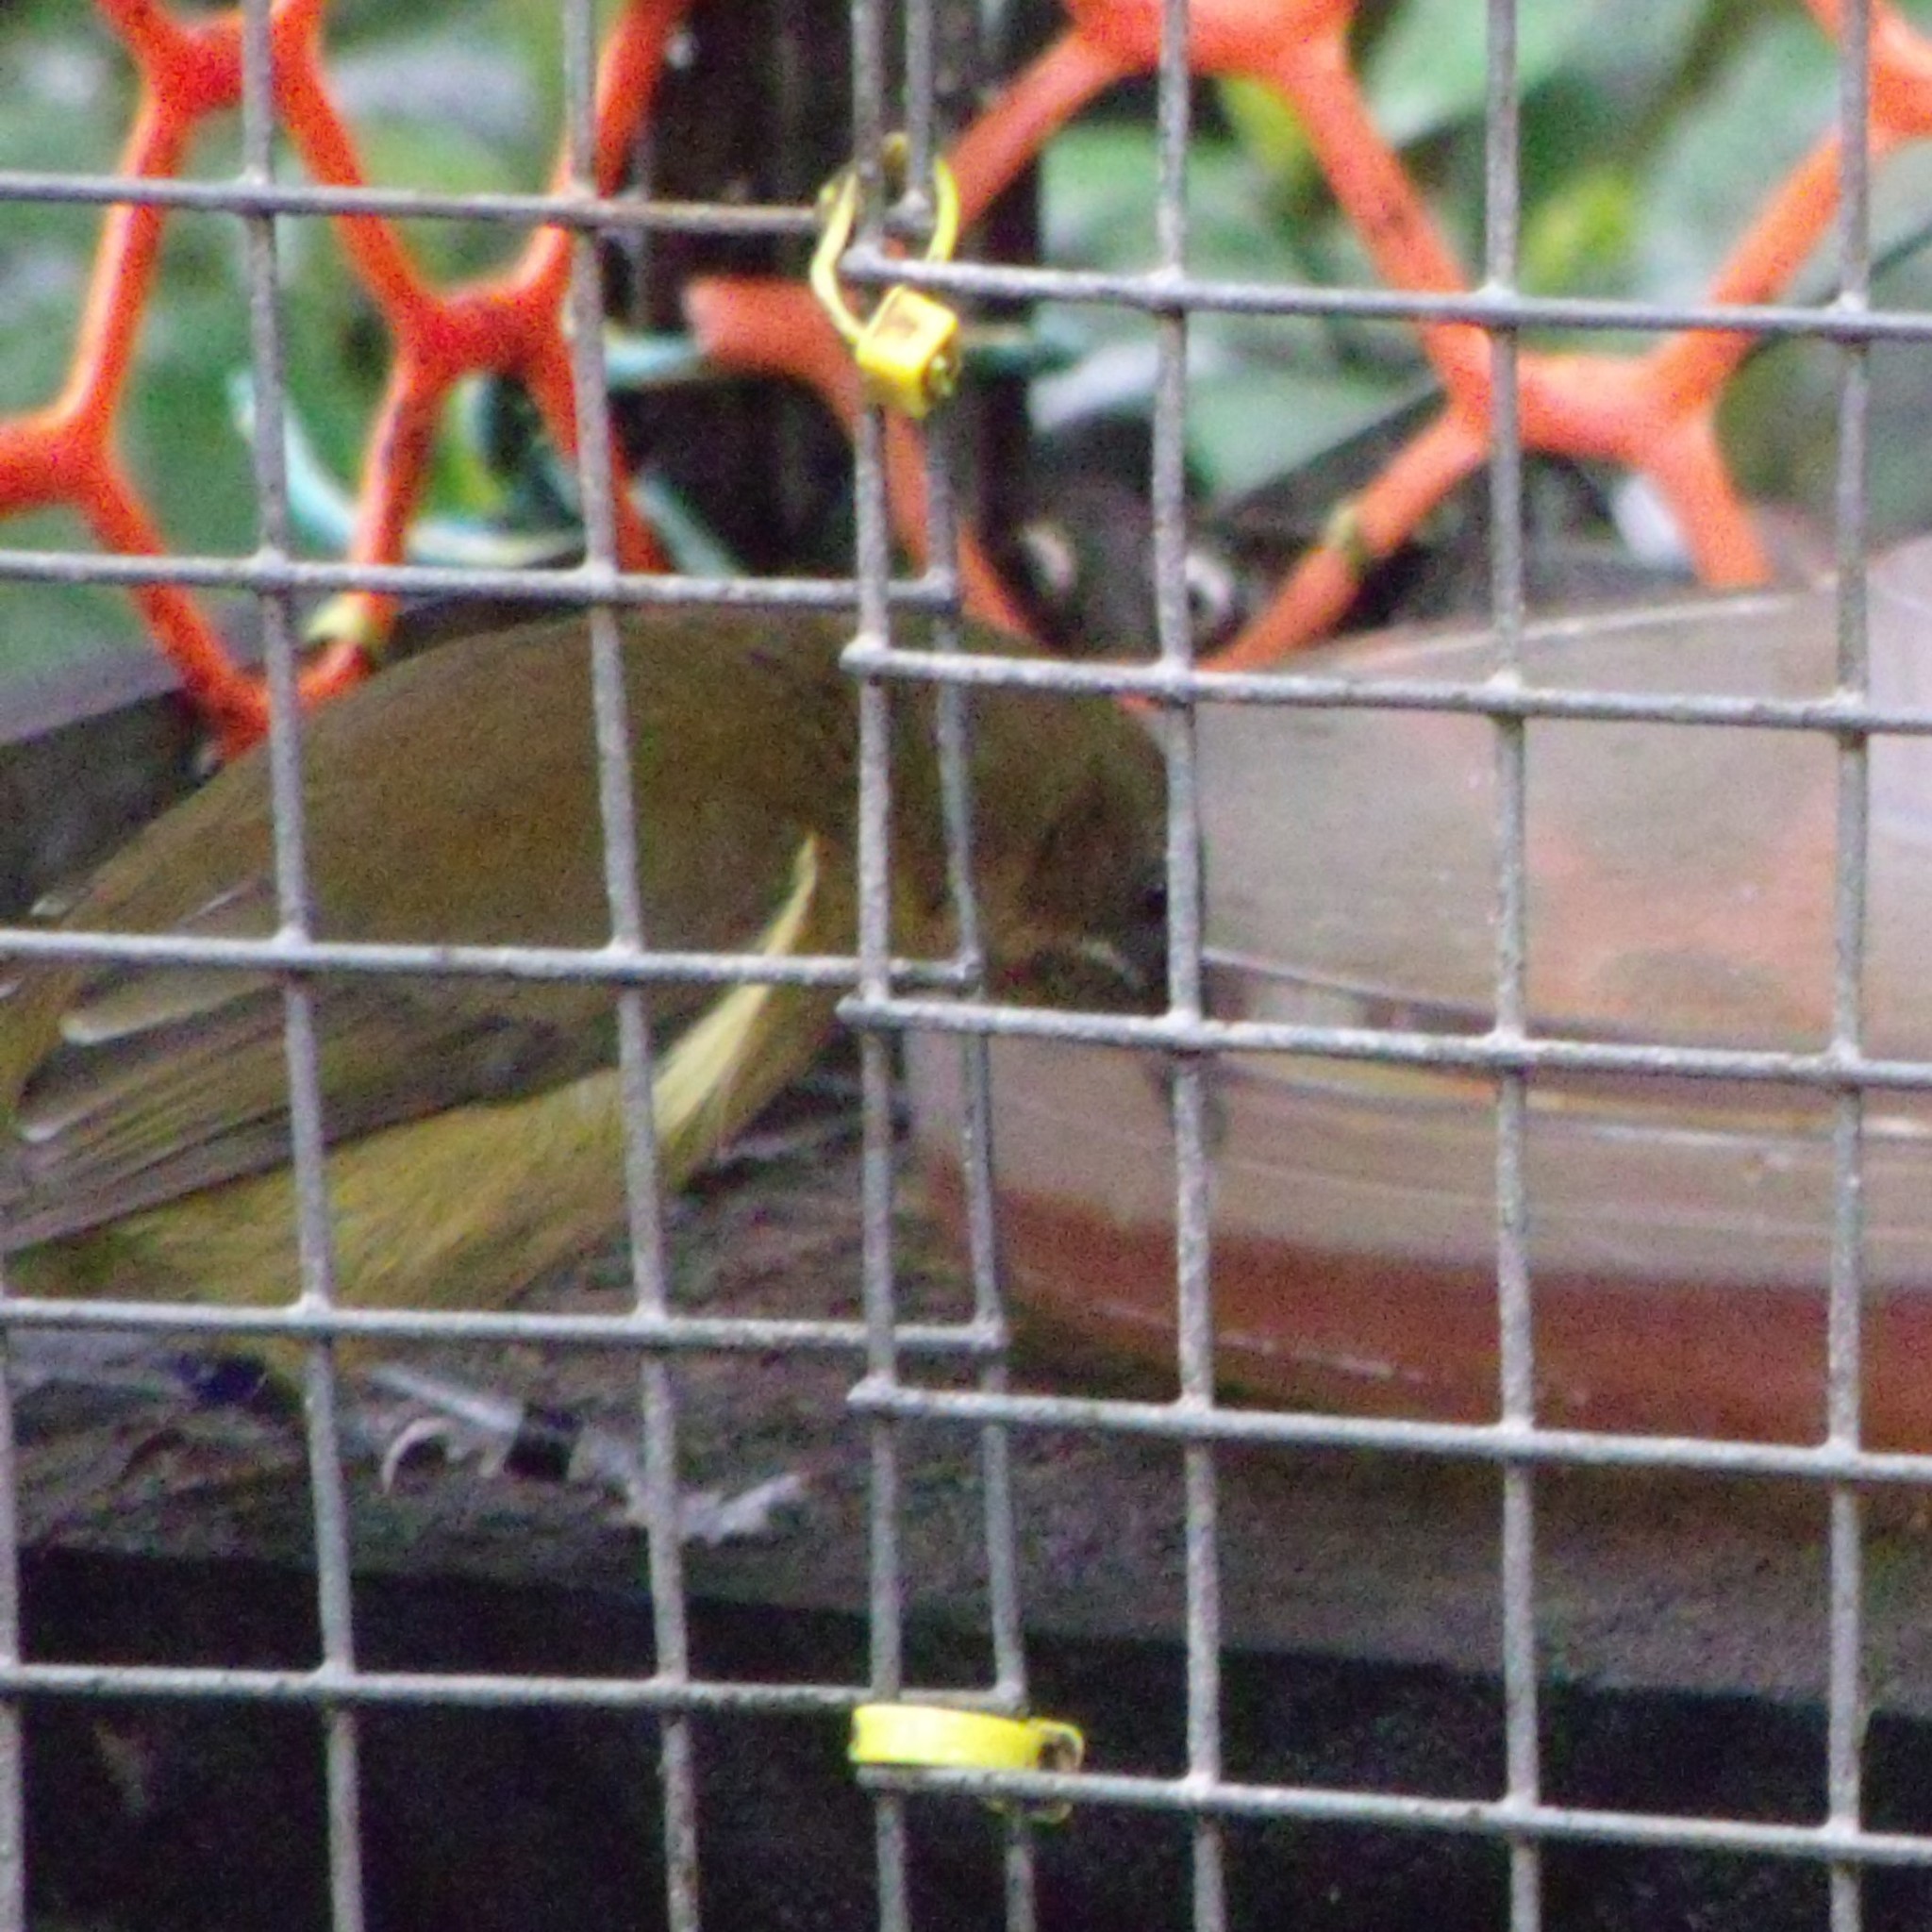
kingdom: Animalia
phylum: Chordata
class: Aves
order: Passeriformes
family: Meliphagidae
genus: Anthornis
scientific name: Anthornis melanura
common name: New zealand bellbird
